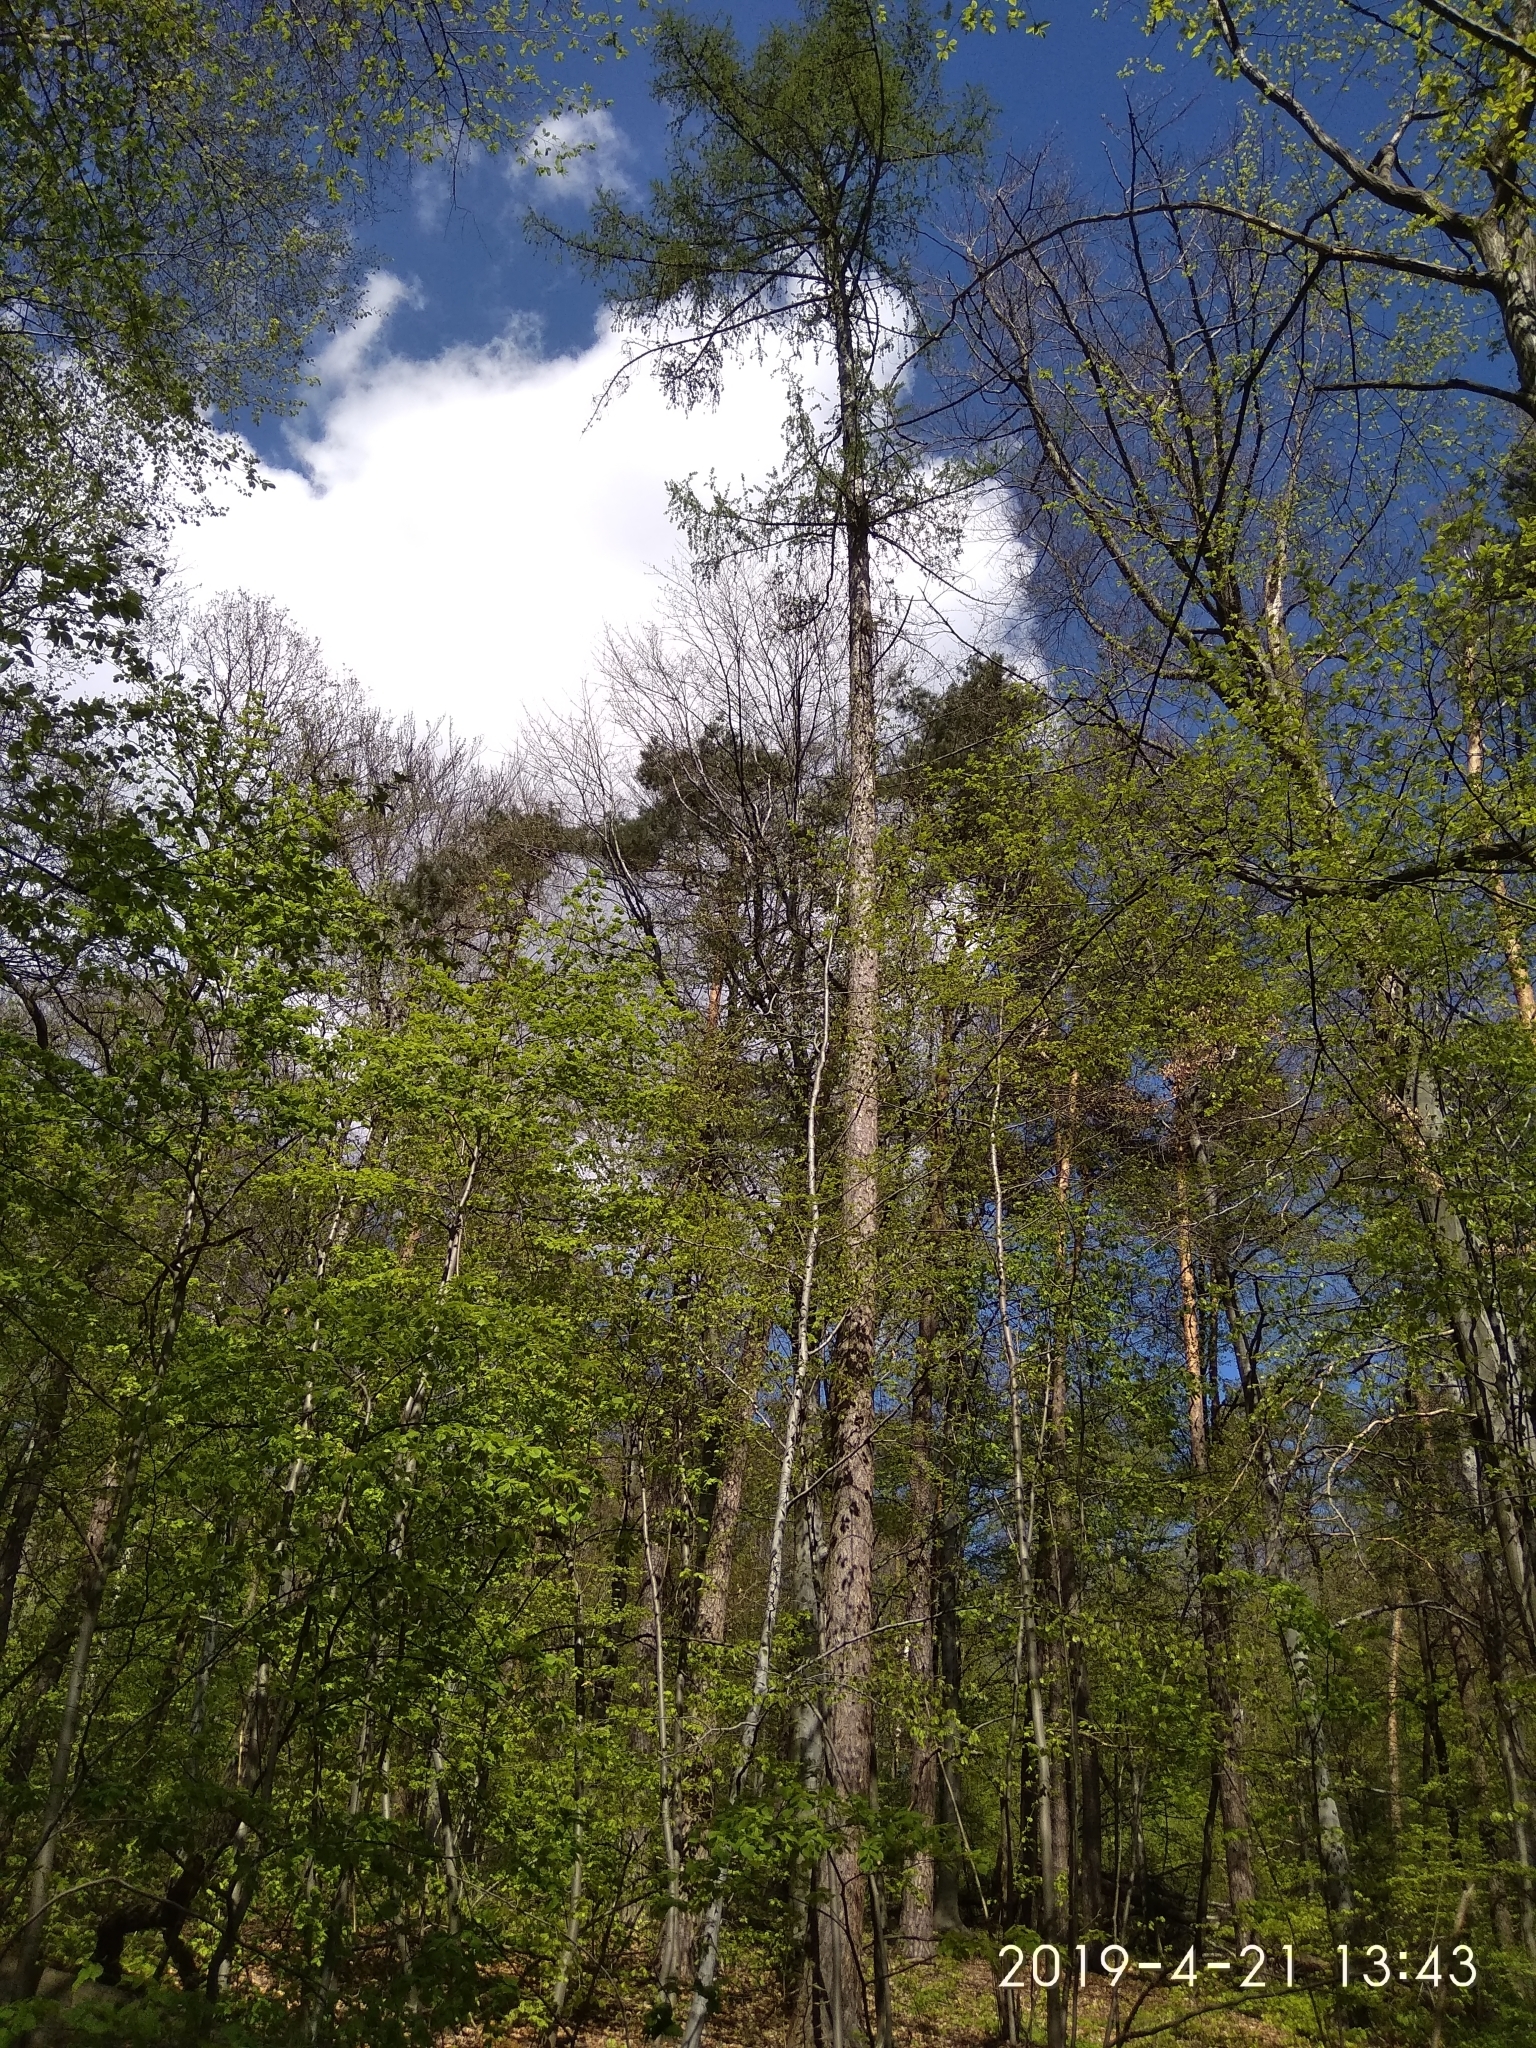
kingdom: Plantae
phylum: Tracheophyta
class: Pinopsida
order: Pinales
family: Pinaceae
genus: Larix
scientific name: Larix decidua
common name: European larch
